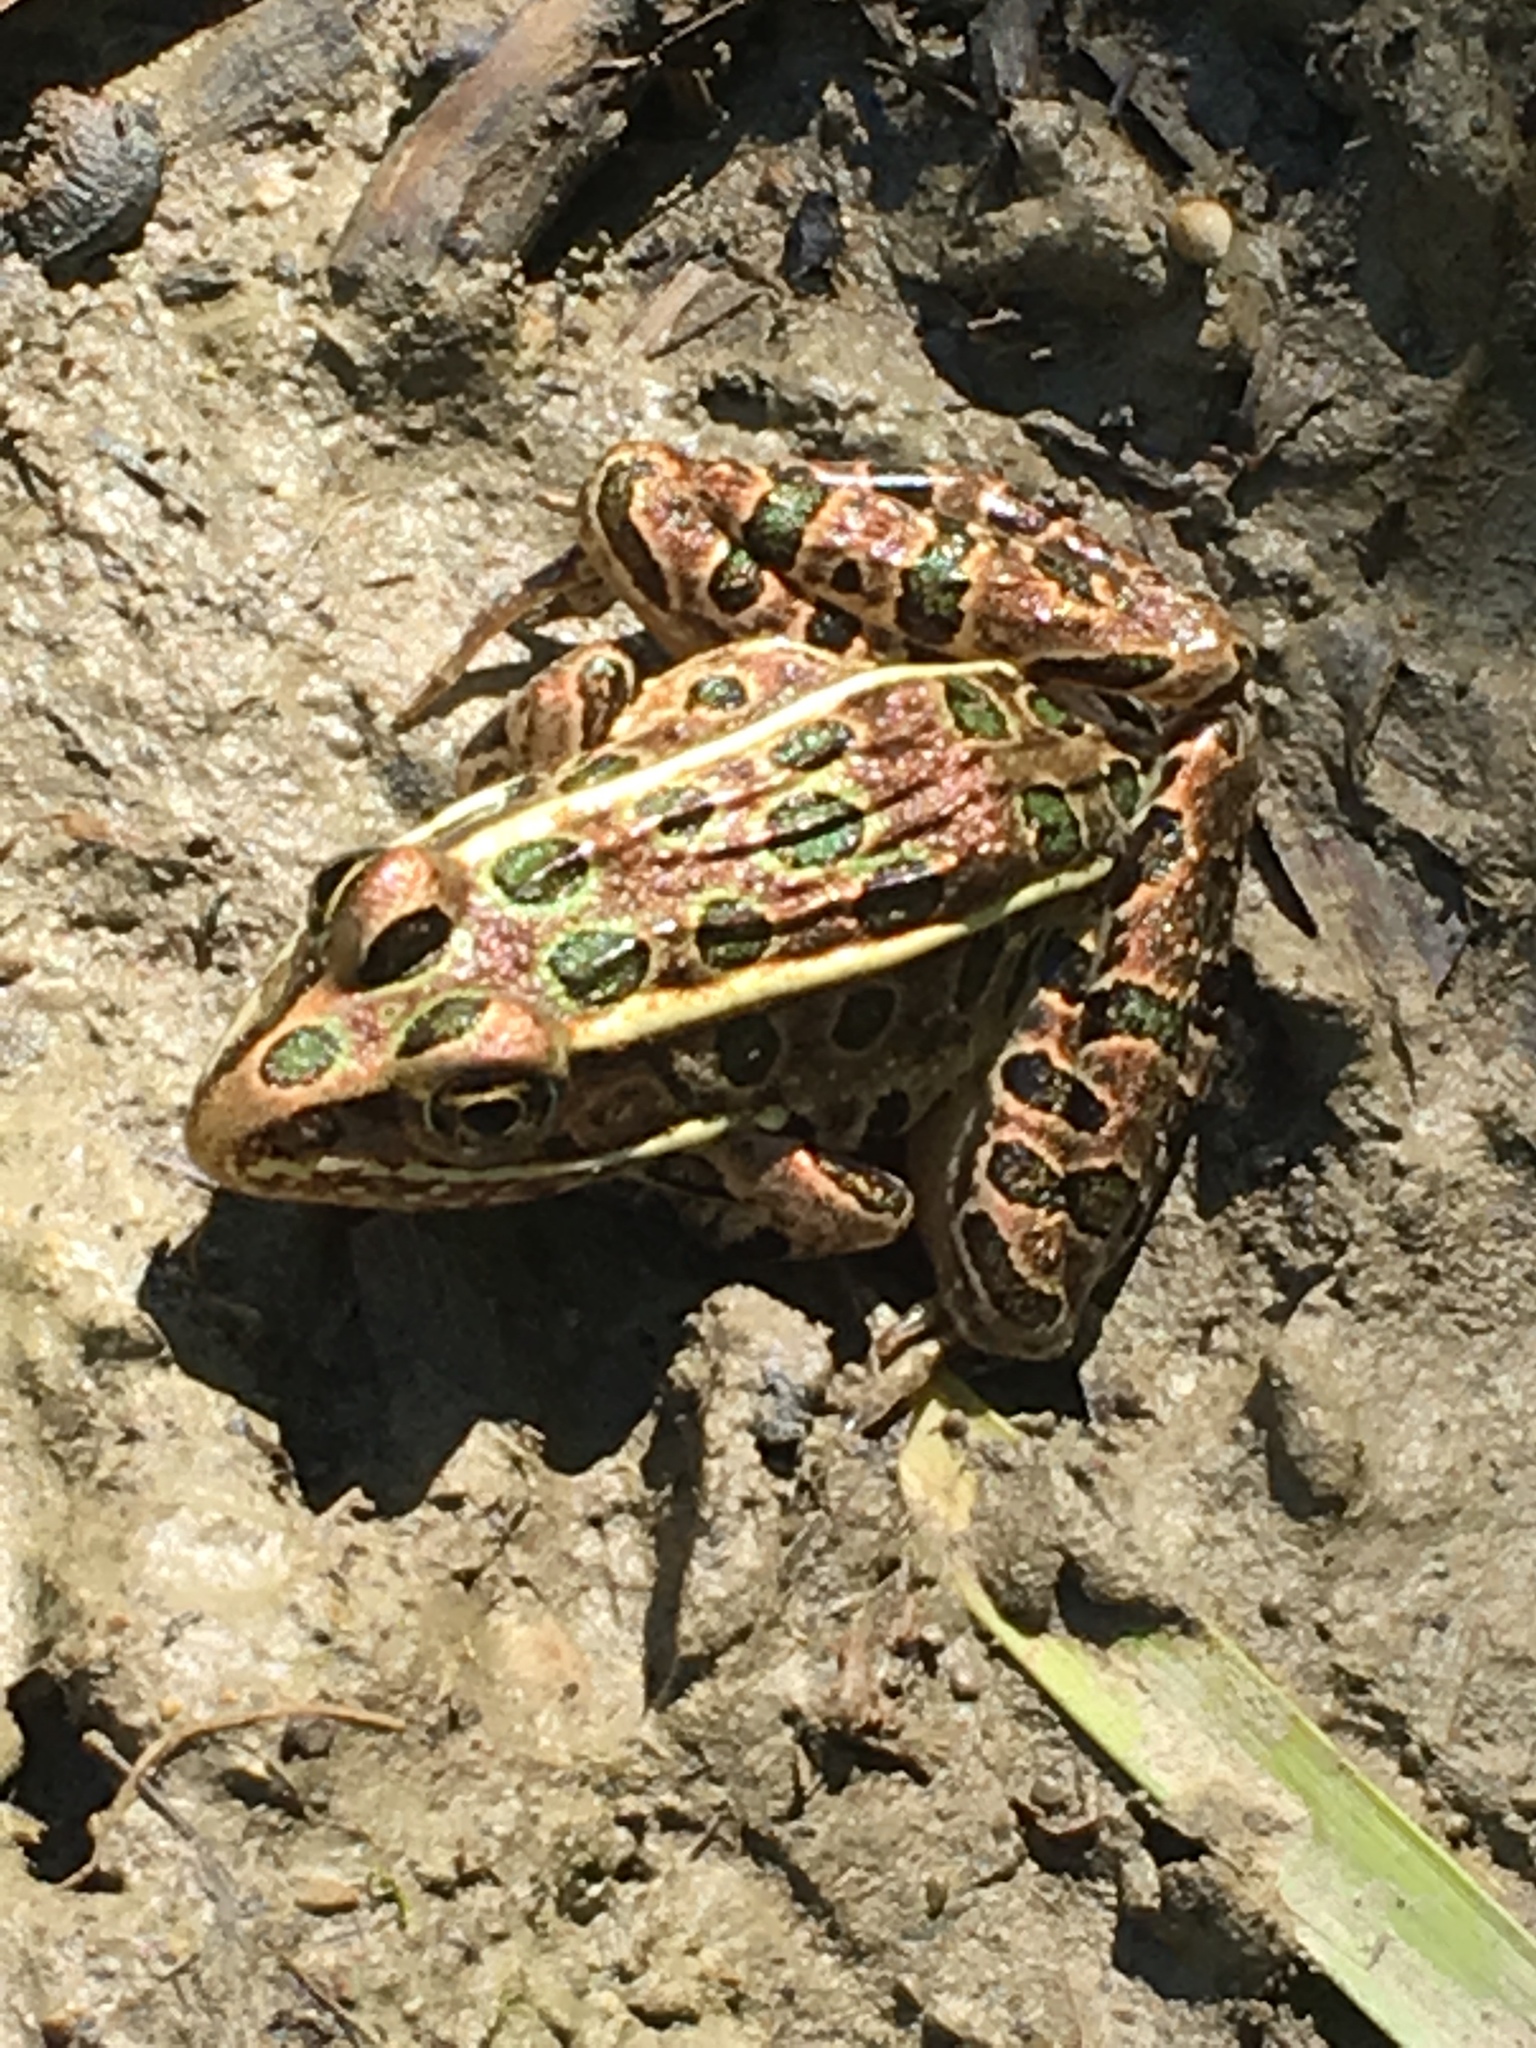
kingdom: Animalia
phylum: Chordata
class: Amphibia
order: Anura
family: Ranidae
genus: Lithobates
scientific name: Lithobates pipiens
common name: Northern leopard frog
